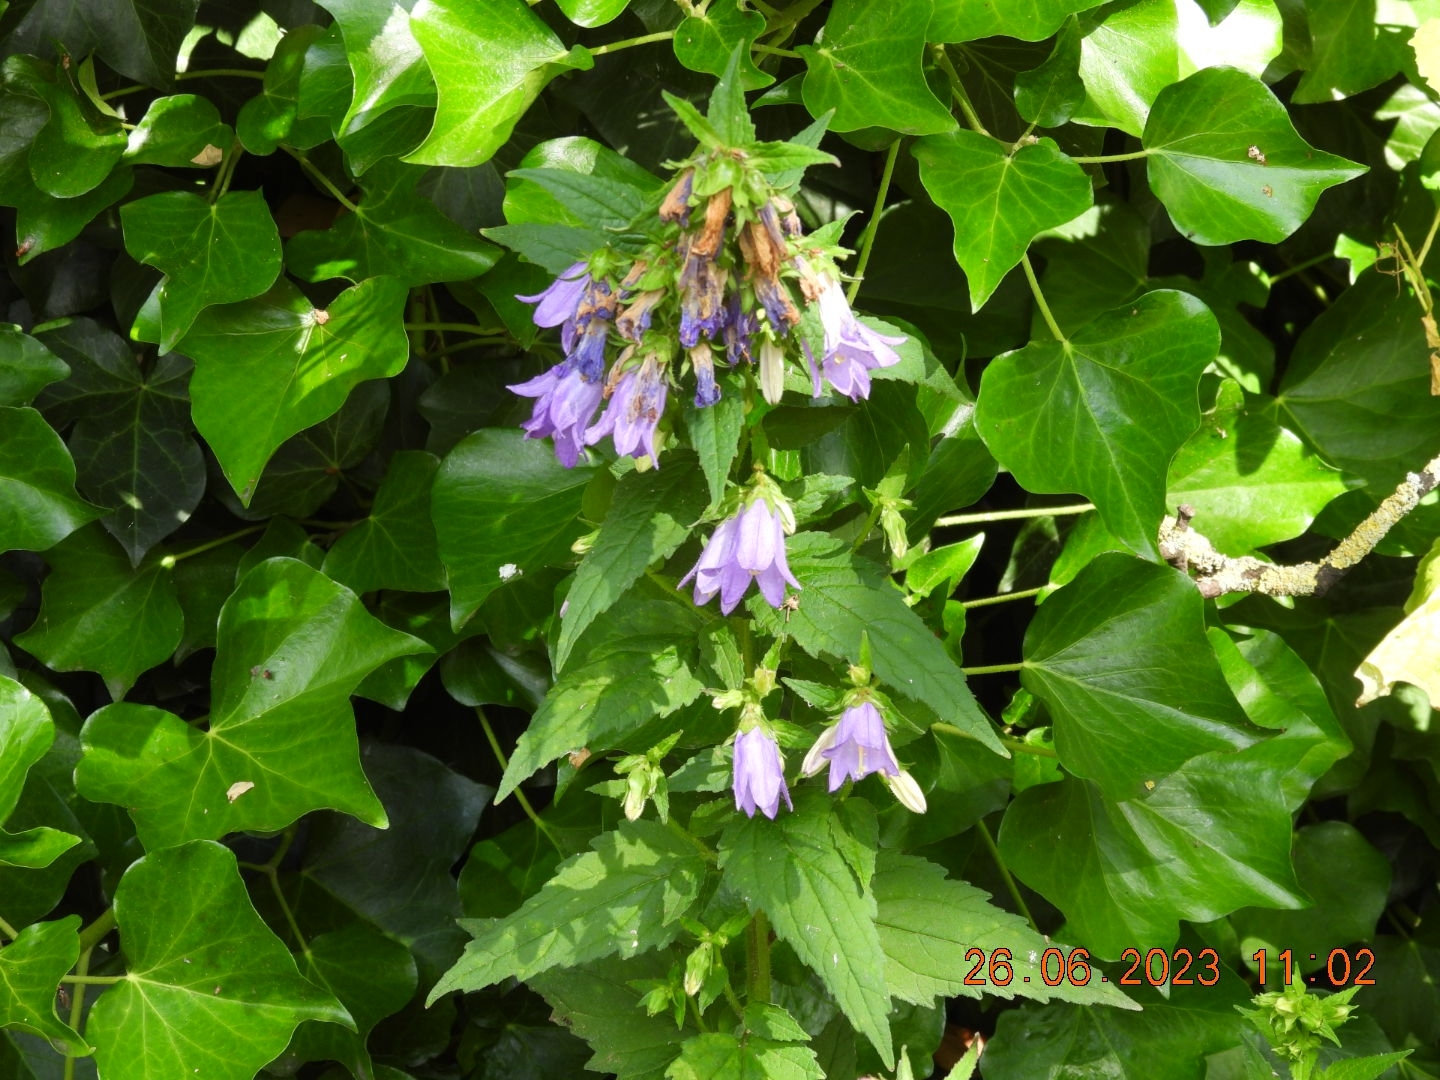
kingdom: Plantae
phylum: Tracheophyta
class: Magnoliopsida
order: Asterales
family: Campanulaceae
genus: Campanula
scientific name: Campanula trachelium
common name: Nettle-leaved bellflower
